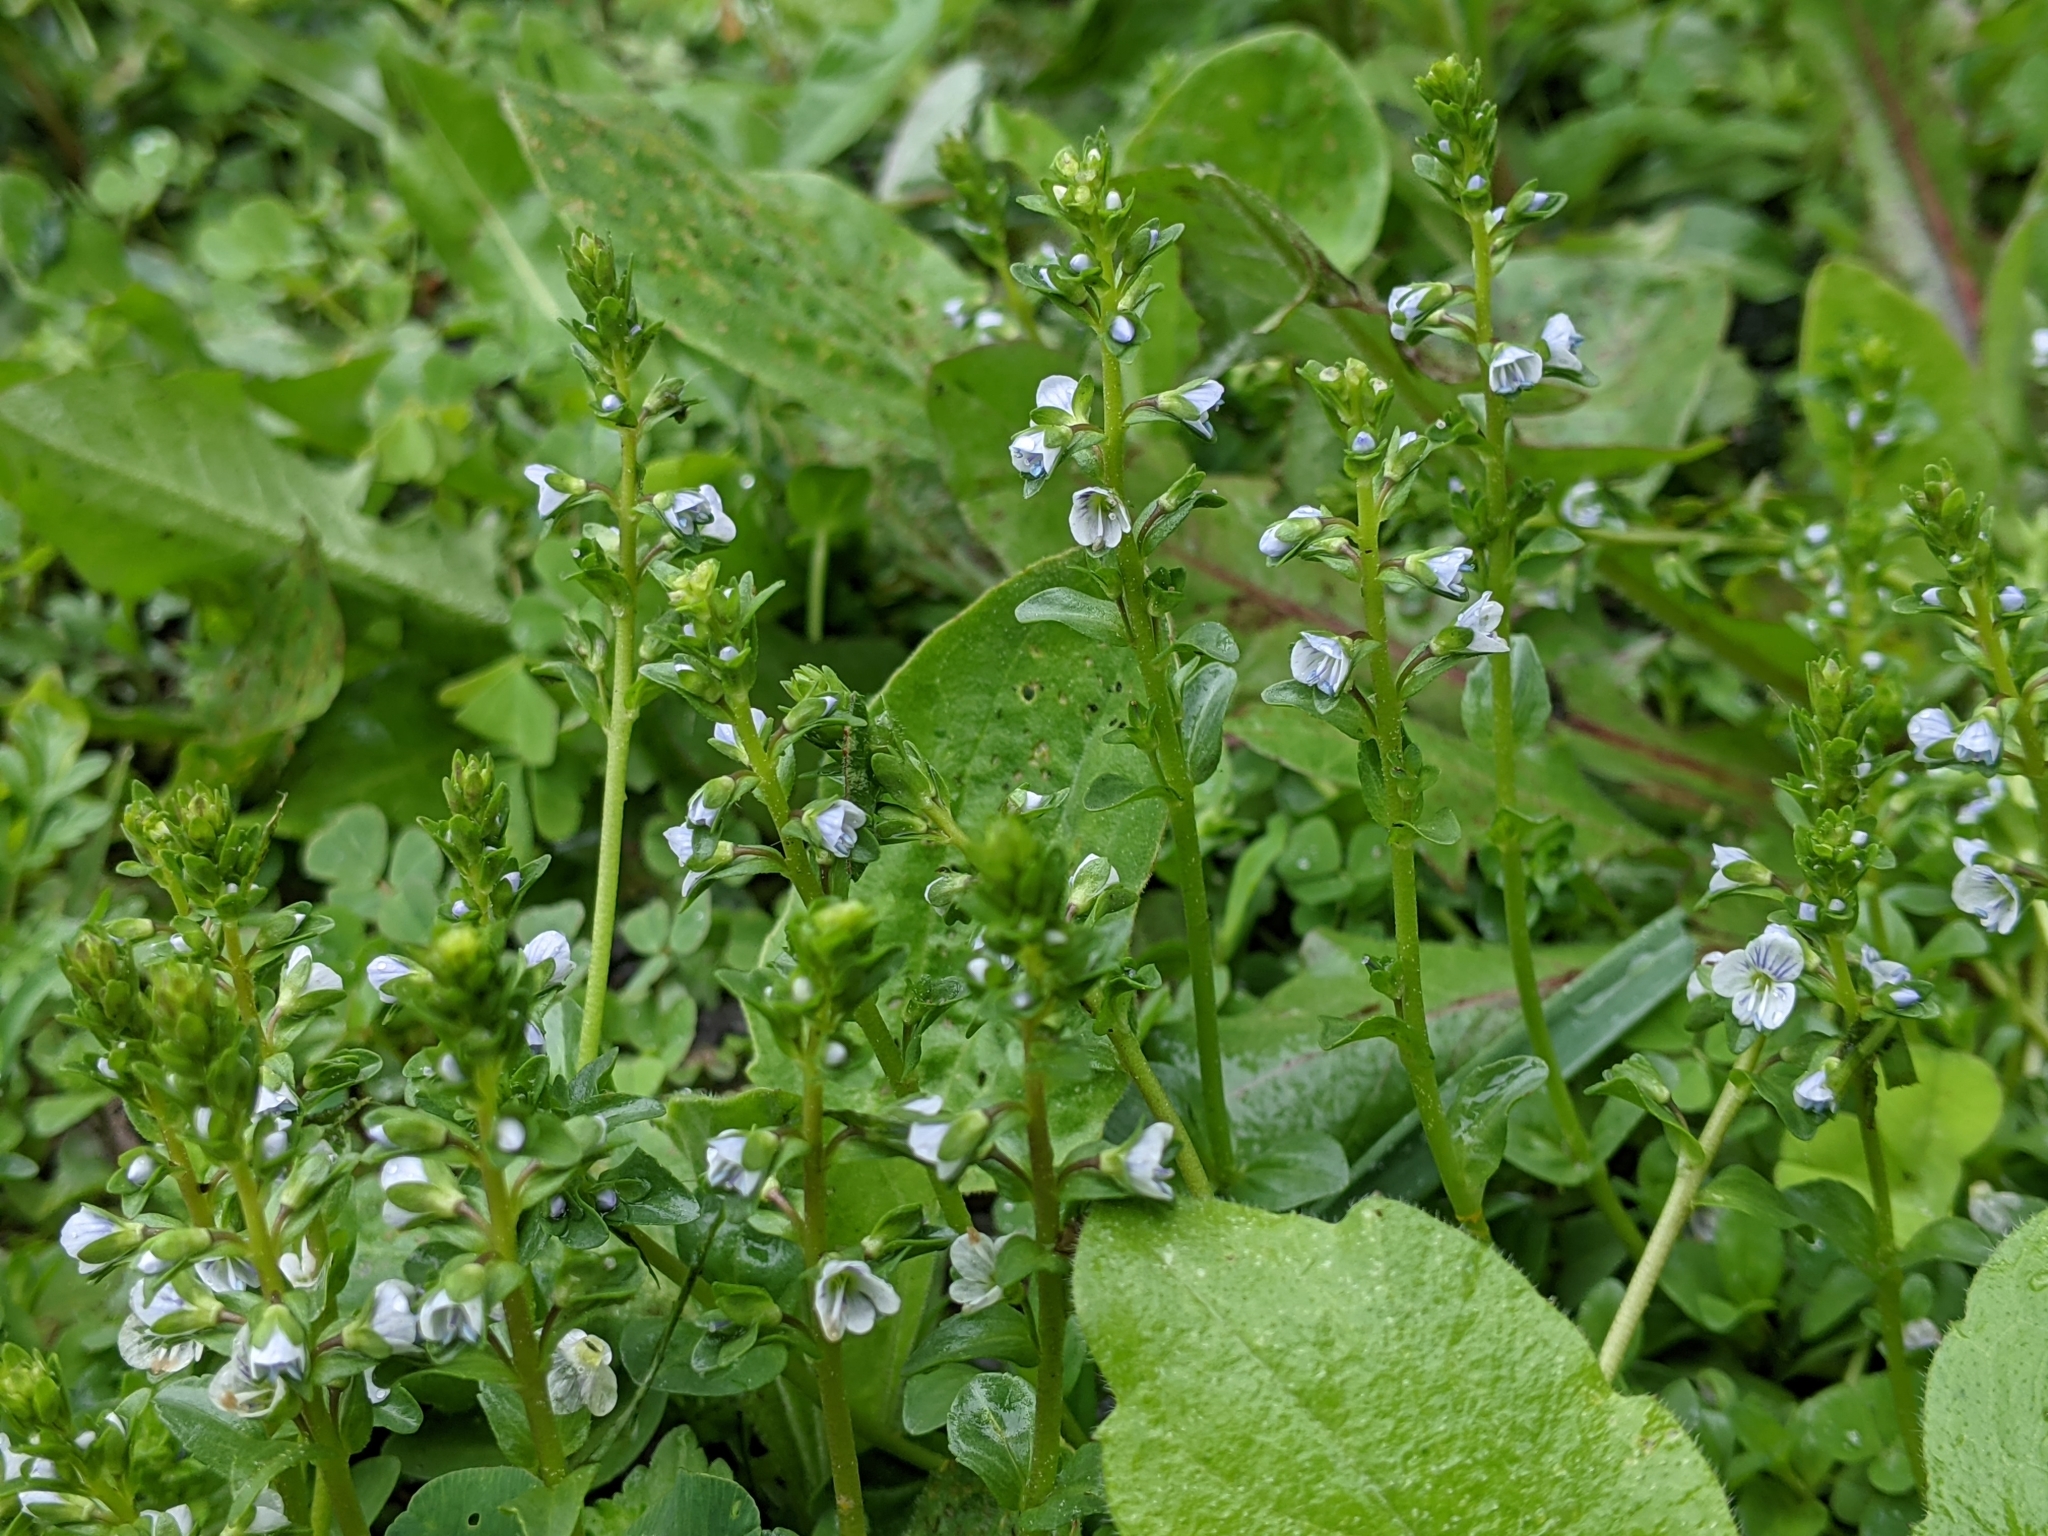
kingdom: Plantae
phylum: Tracheophyta
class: Magnoliopsida
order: Lamiales
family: Plantaginaceae
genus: Veronica
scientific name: Veronica serpyllifolia
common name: Thyme-leaved speedwell
